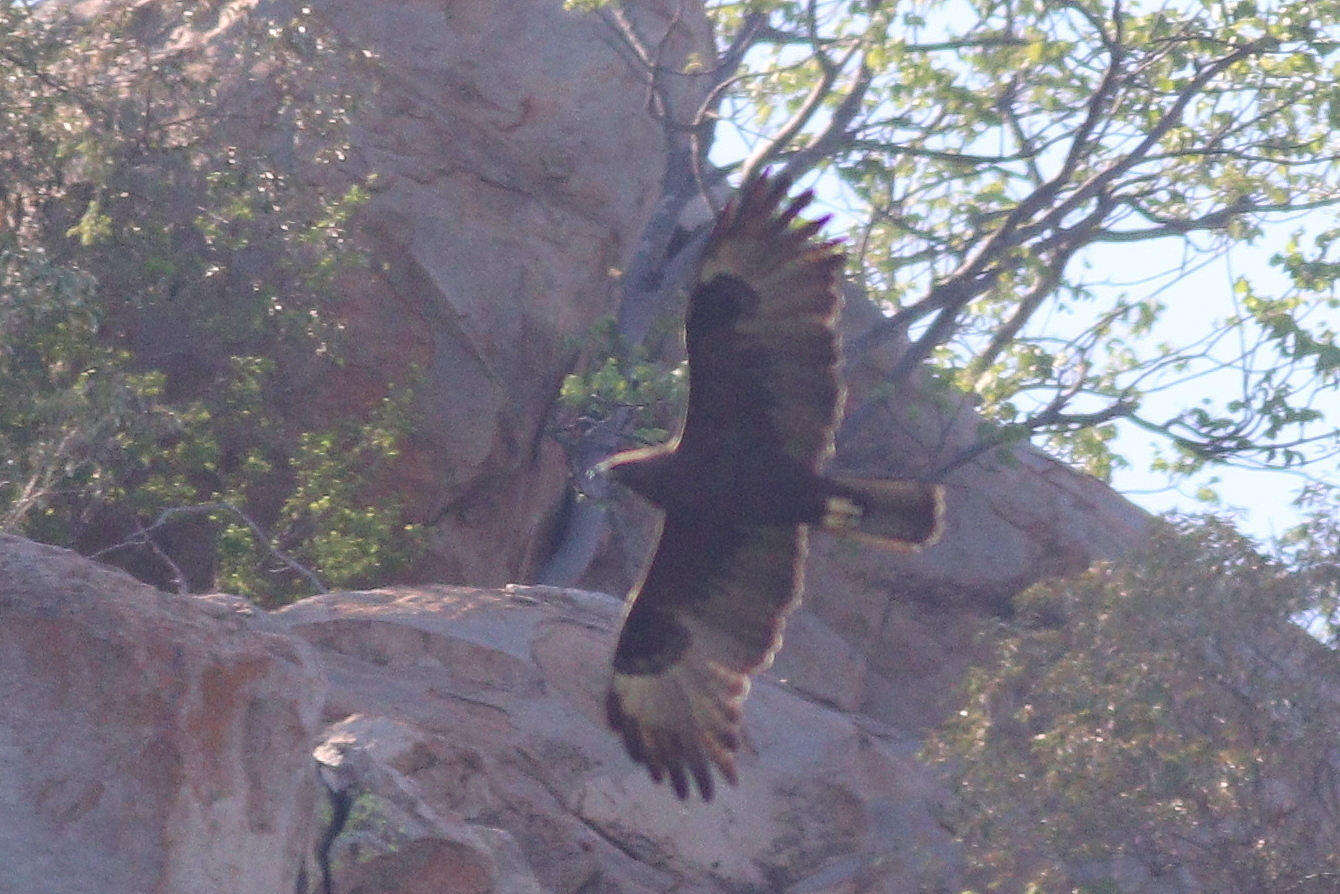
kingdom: Animalia
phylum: Chordata
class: Aves
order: Accipitriformes
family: Accipitridae
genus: Hieraaetus
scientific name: Hieraaetus wahlbergi
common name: Wahlberg's eagle
